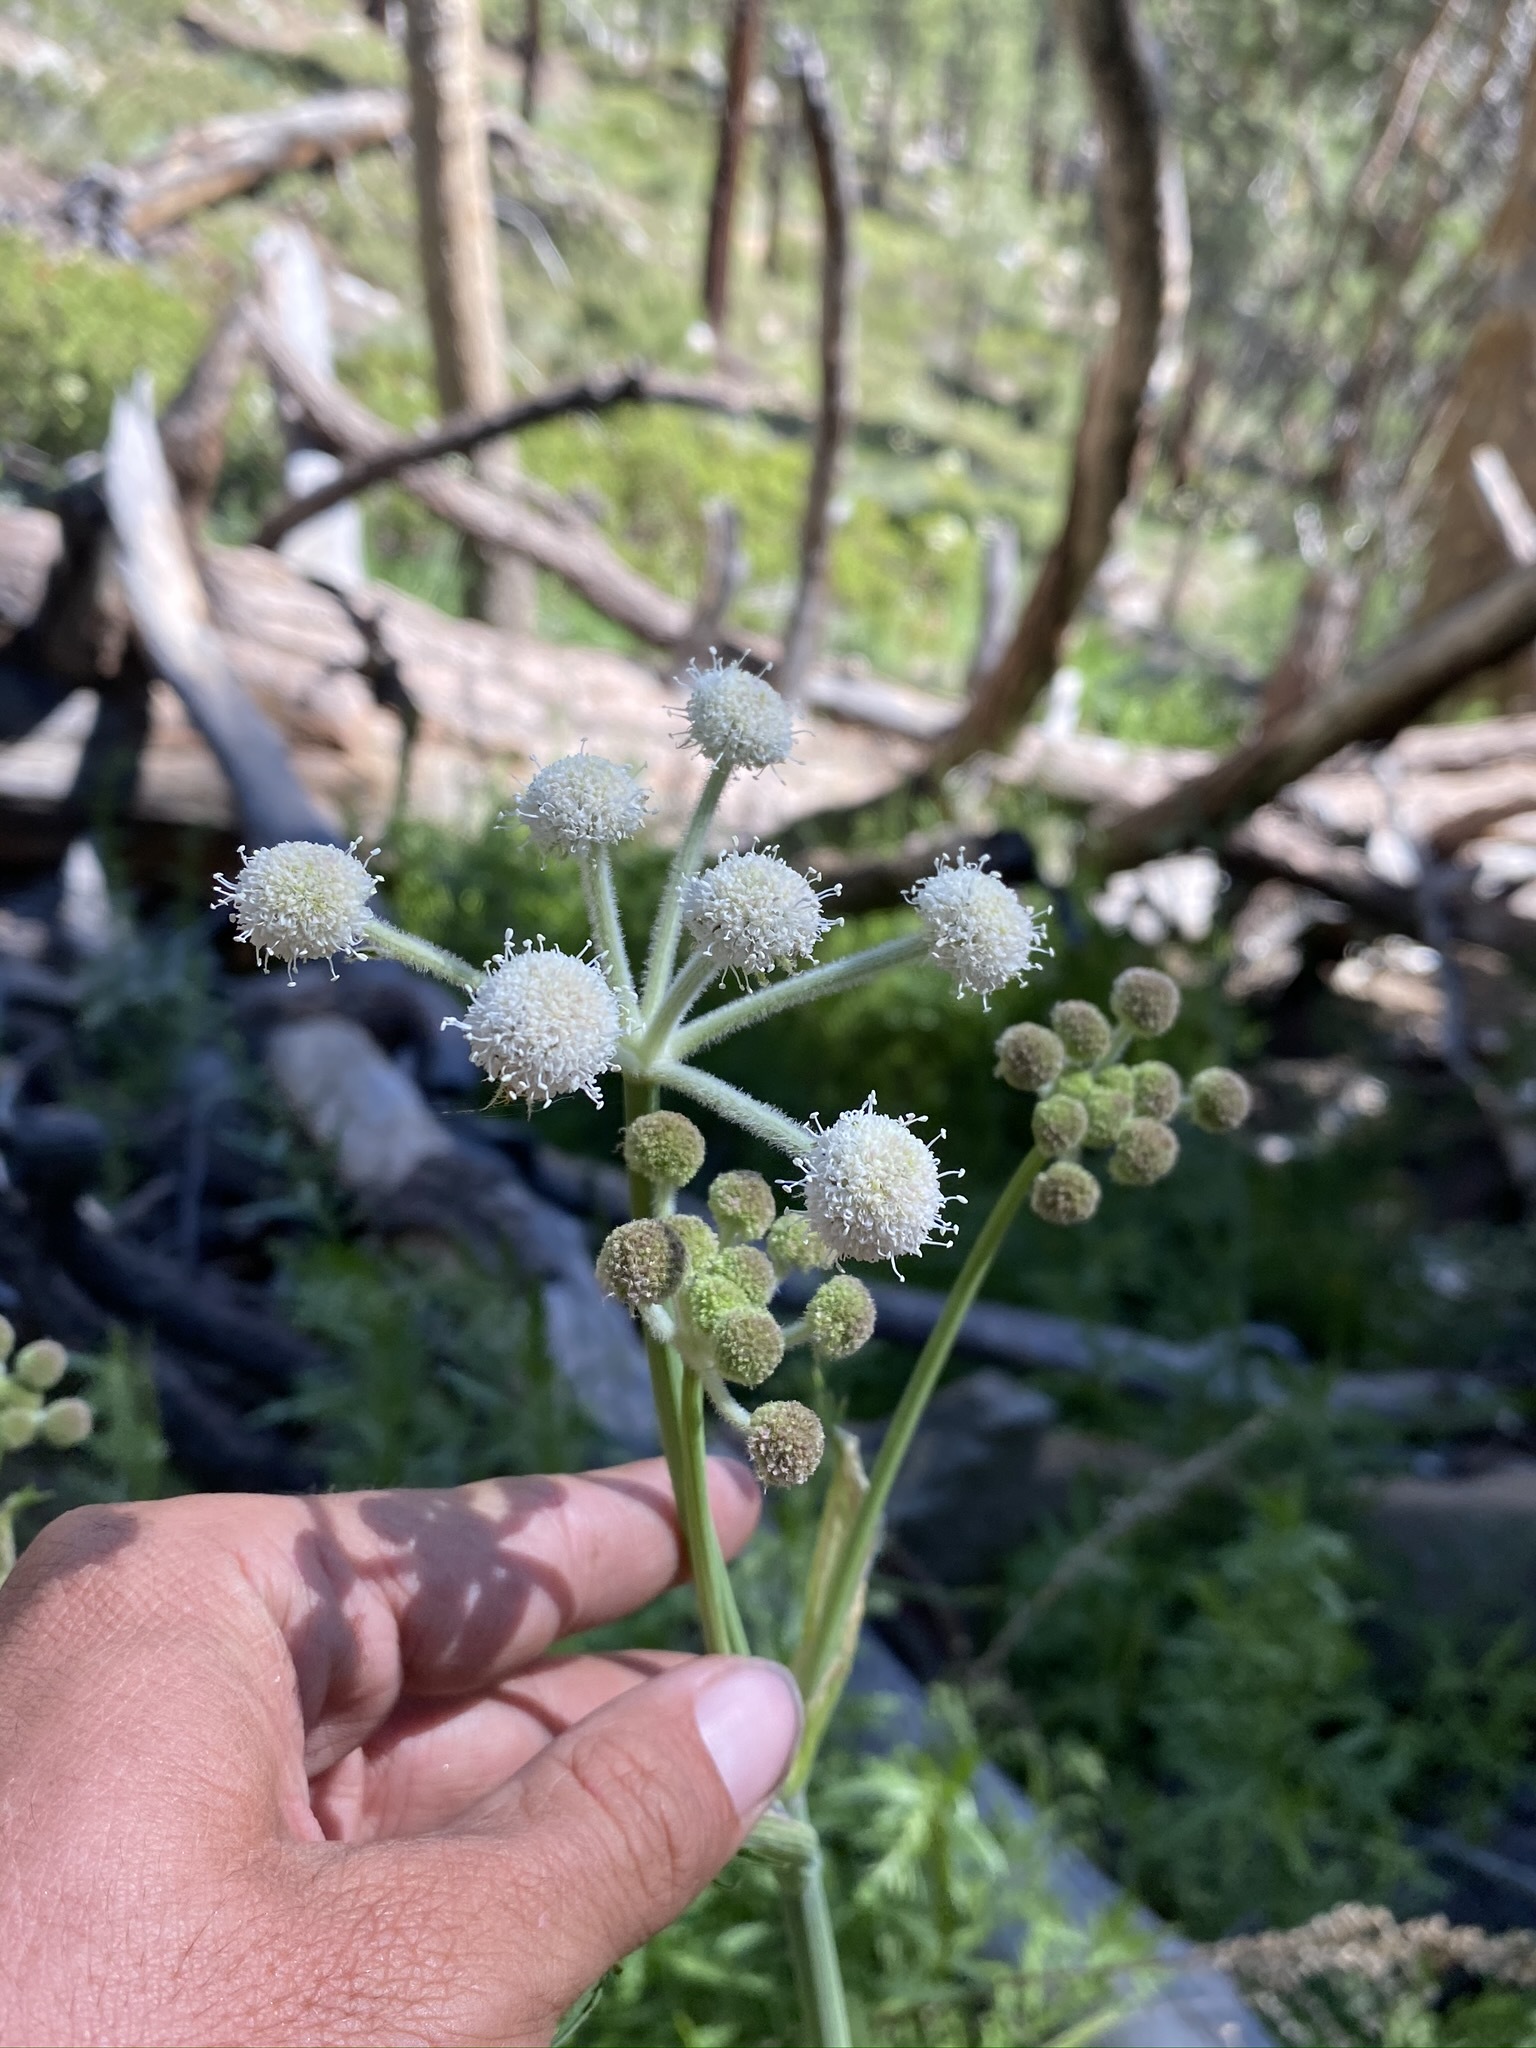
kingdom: Plantae
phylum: Tracheophyta
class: Magnoliopsida
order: Apiales
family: Apiaceae
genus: Angelica
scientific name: Angelica capitellata
